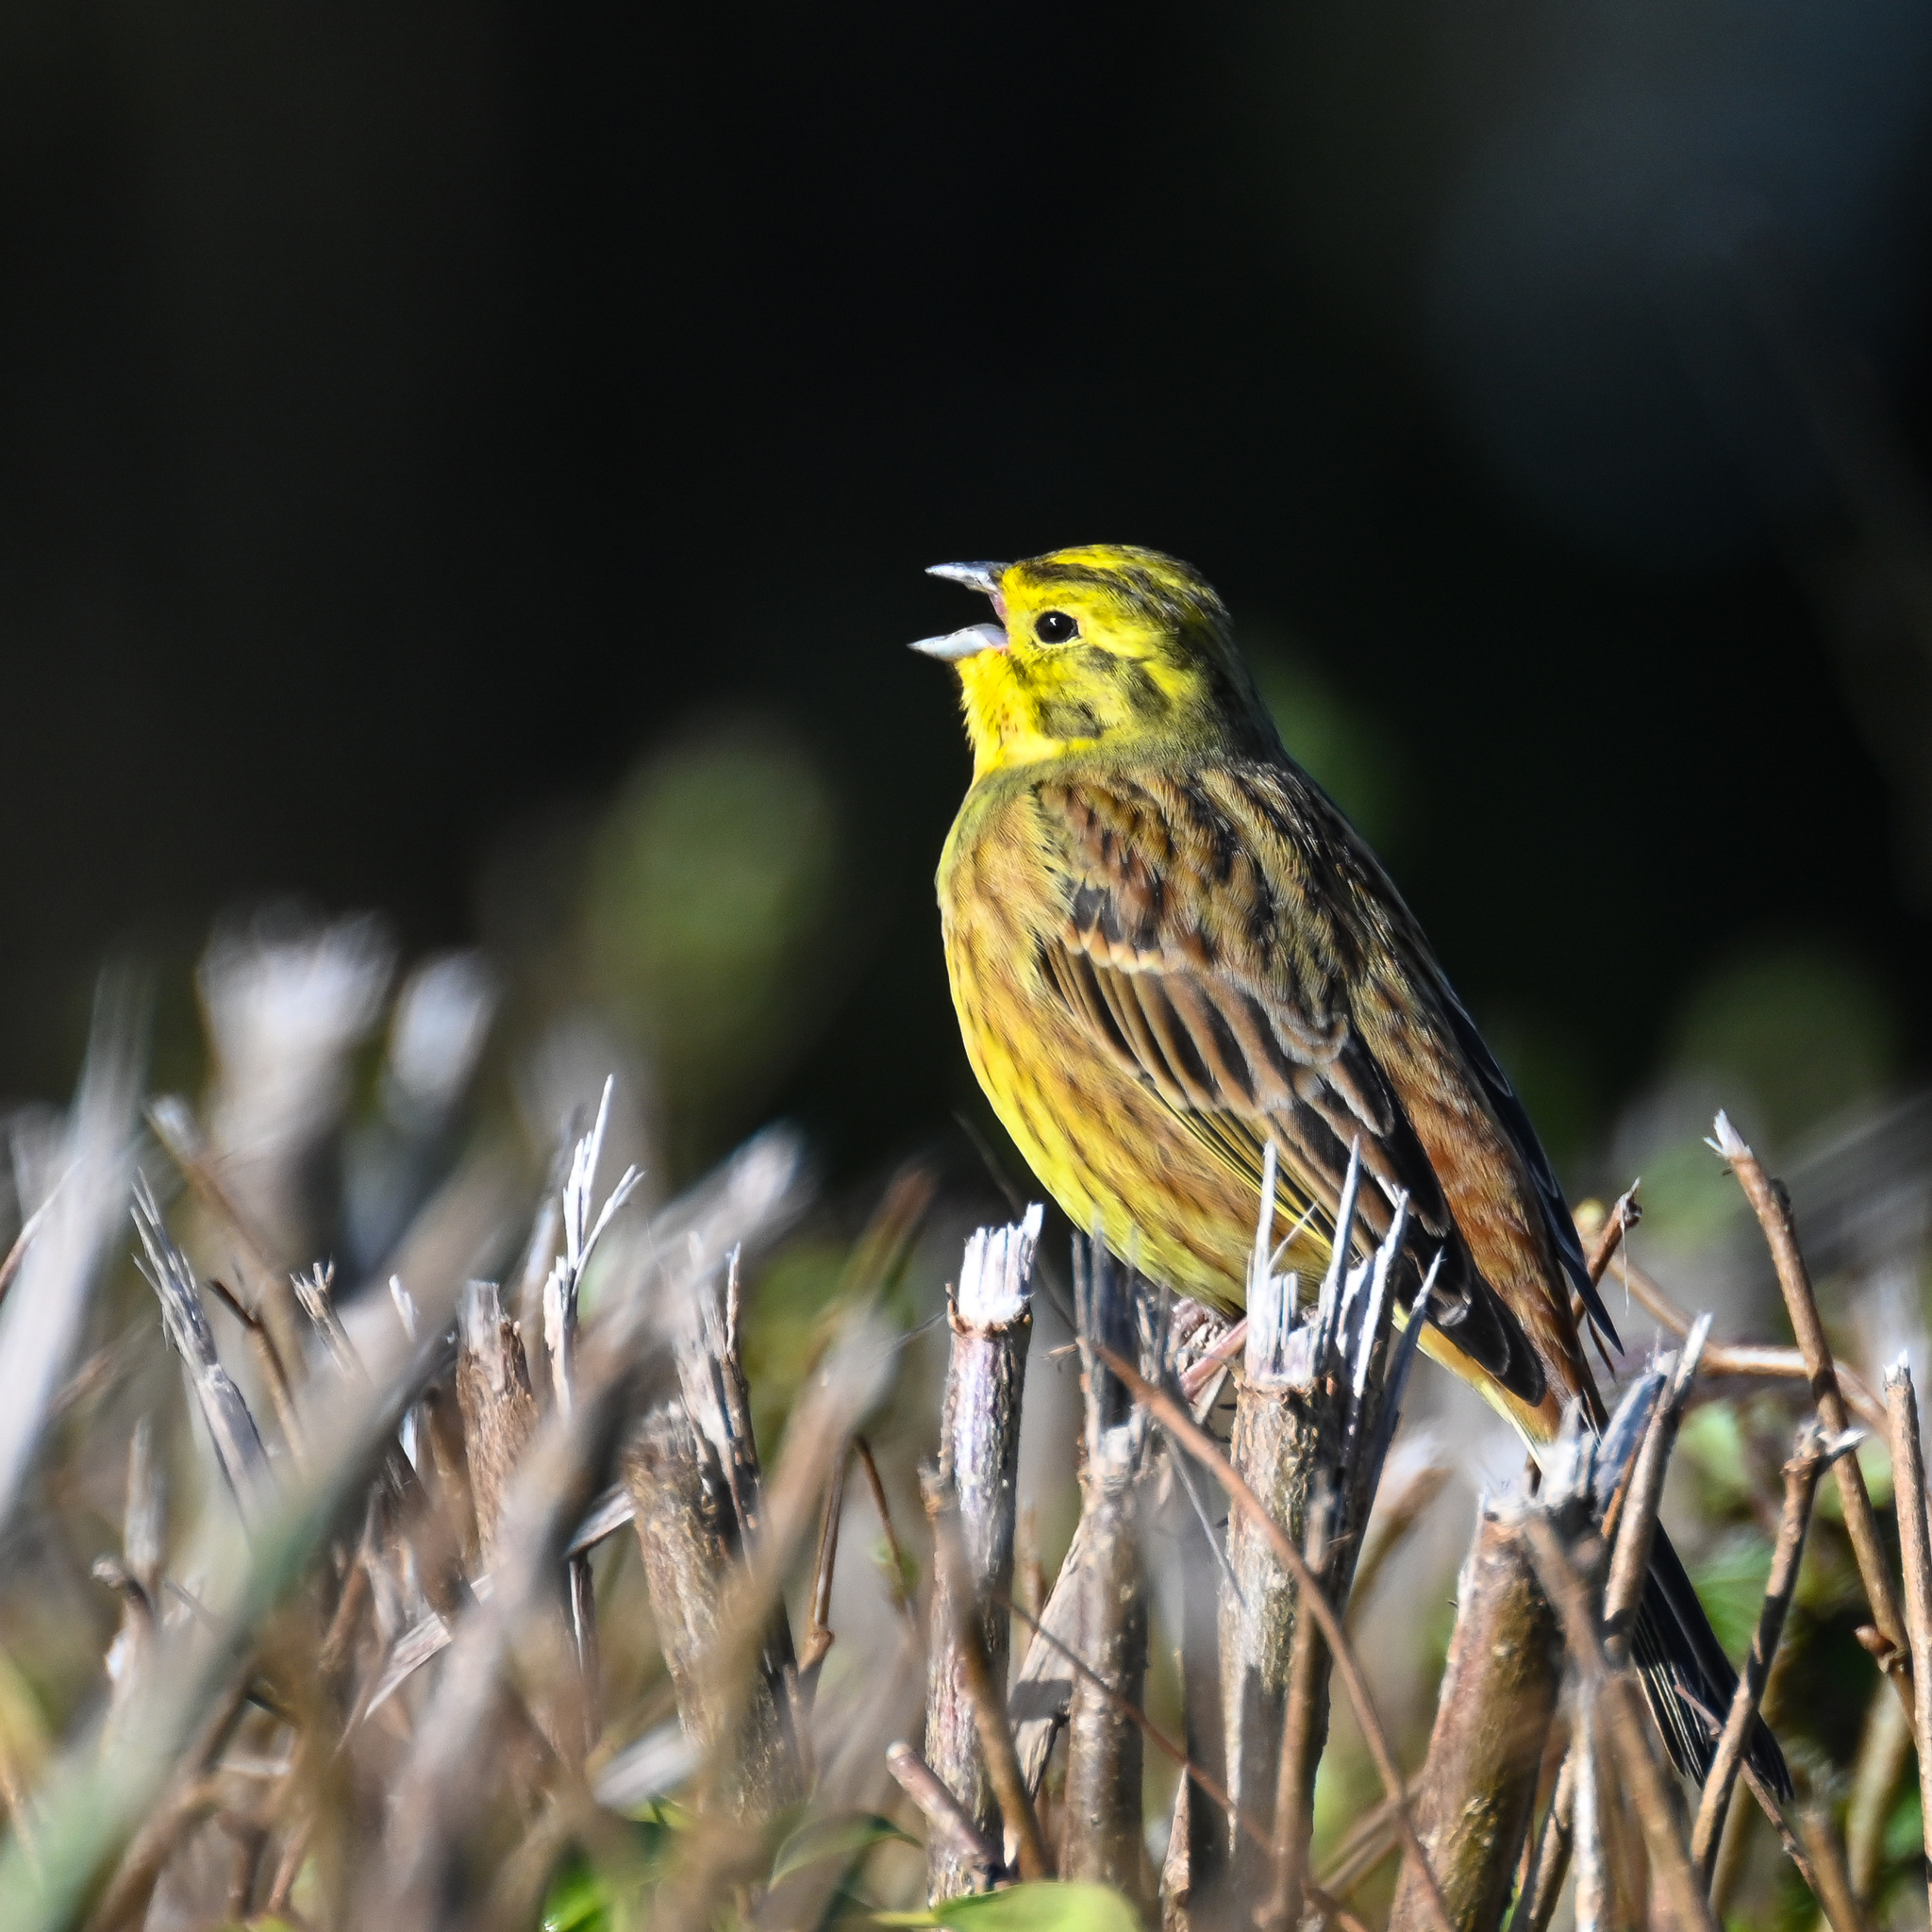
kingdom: Animalia
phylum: Chordata
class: Aves
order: Passeriformes
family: Emberizidae
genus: Emberiza
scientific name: Emberiza citrinella
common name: Yellowhammer
